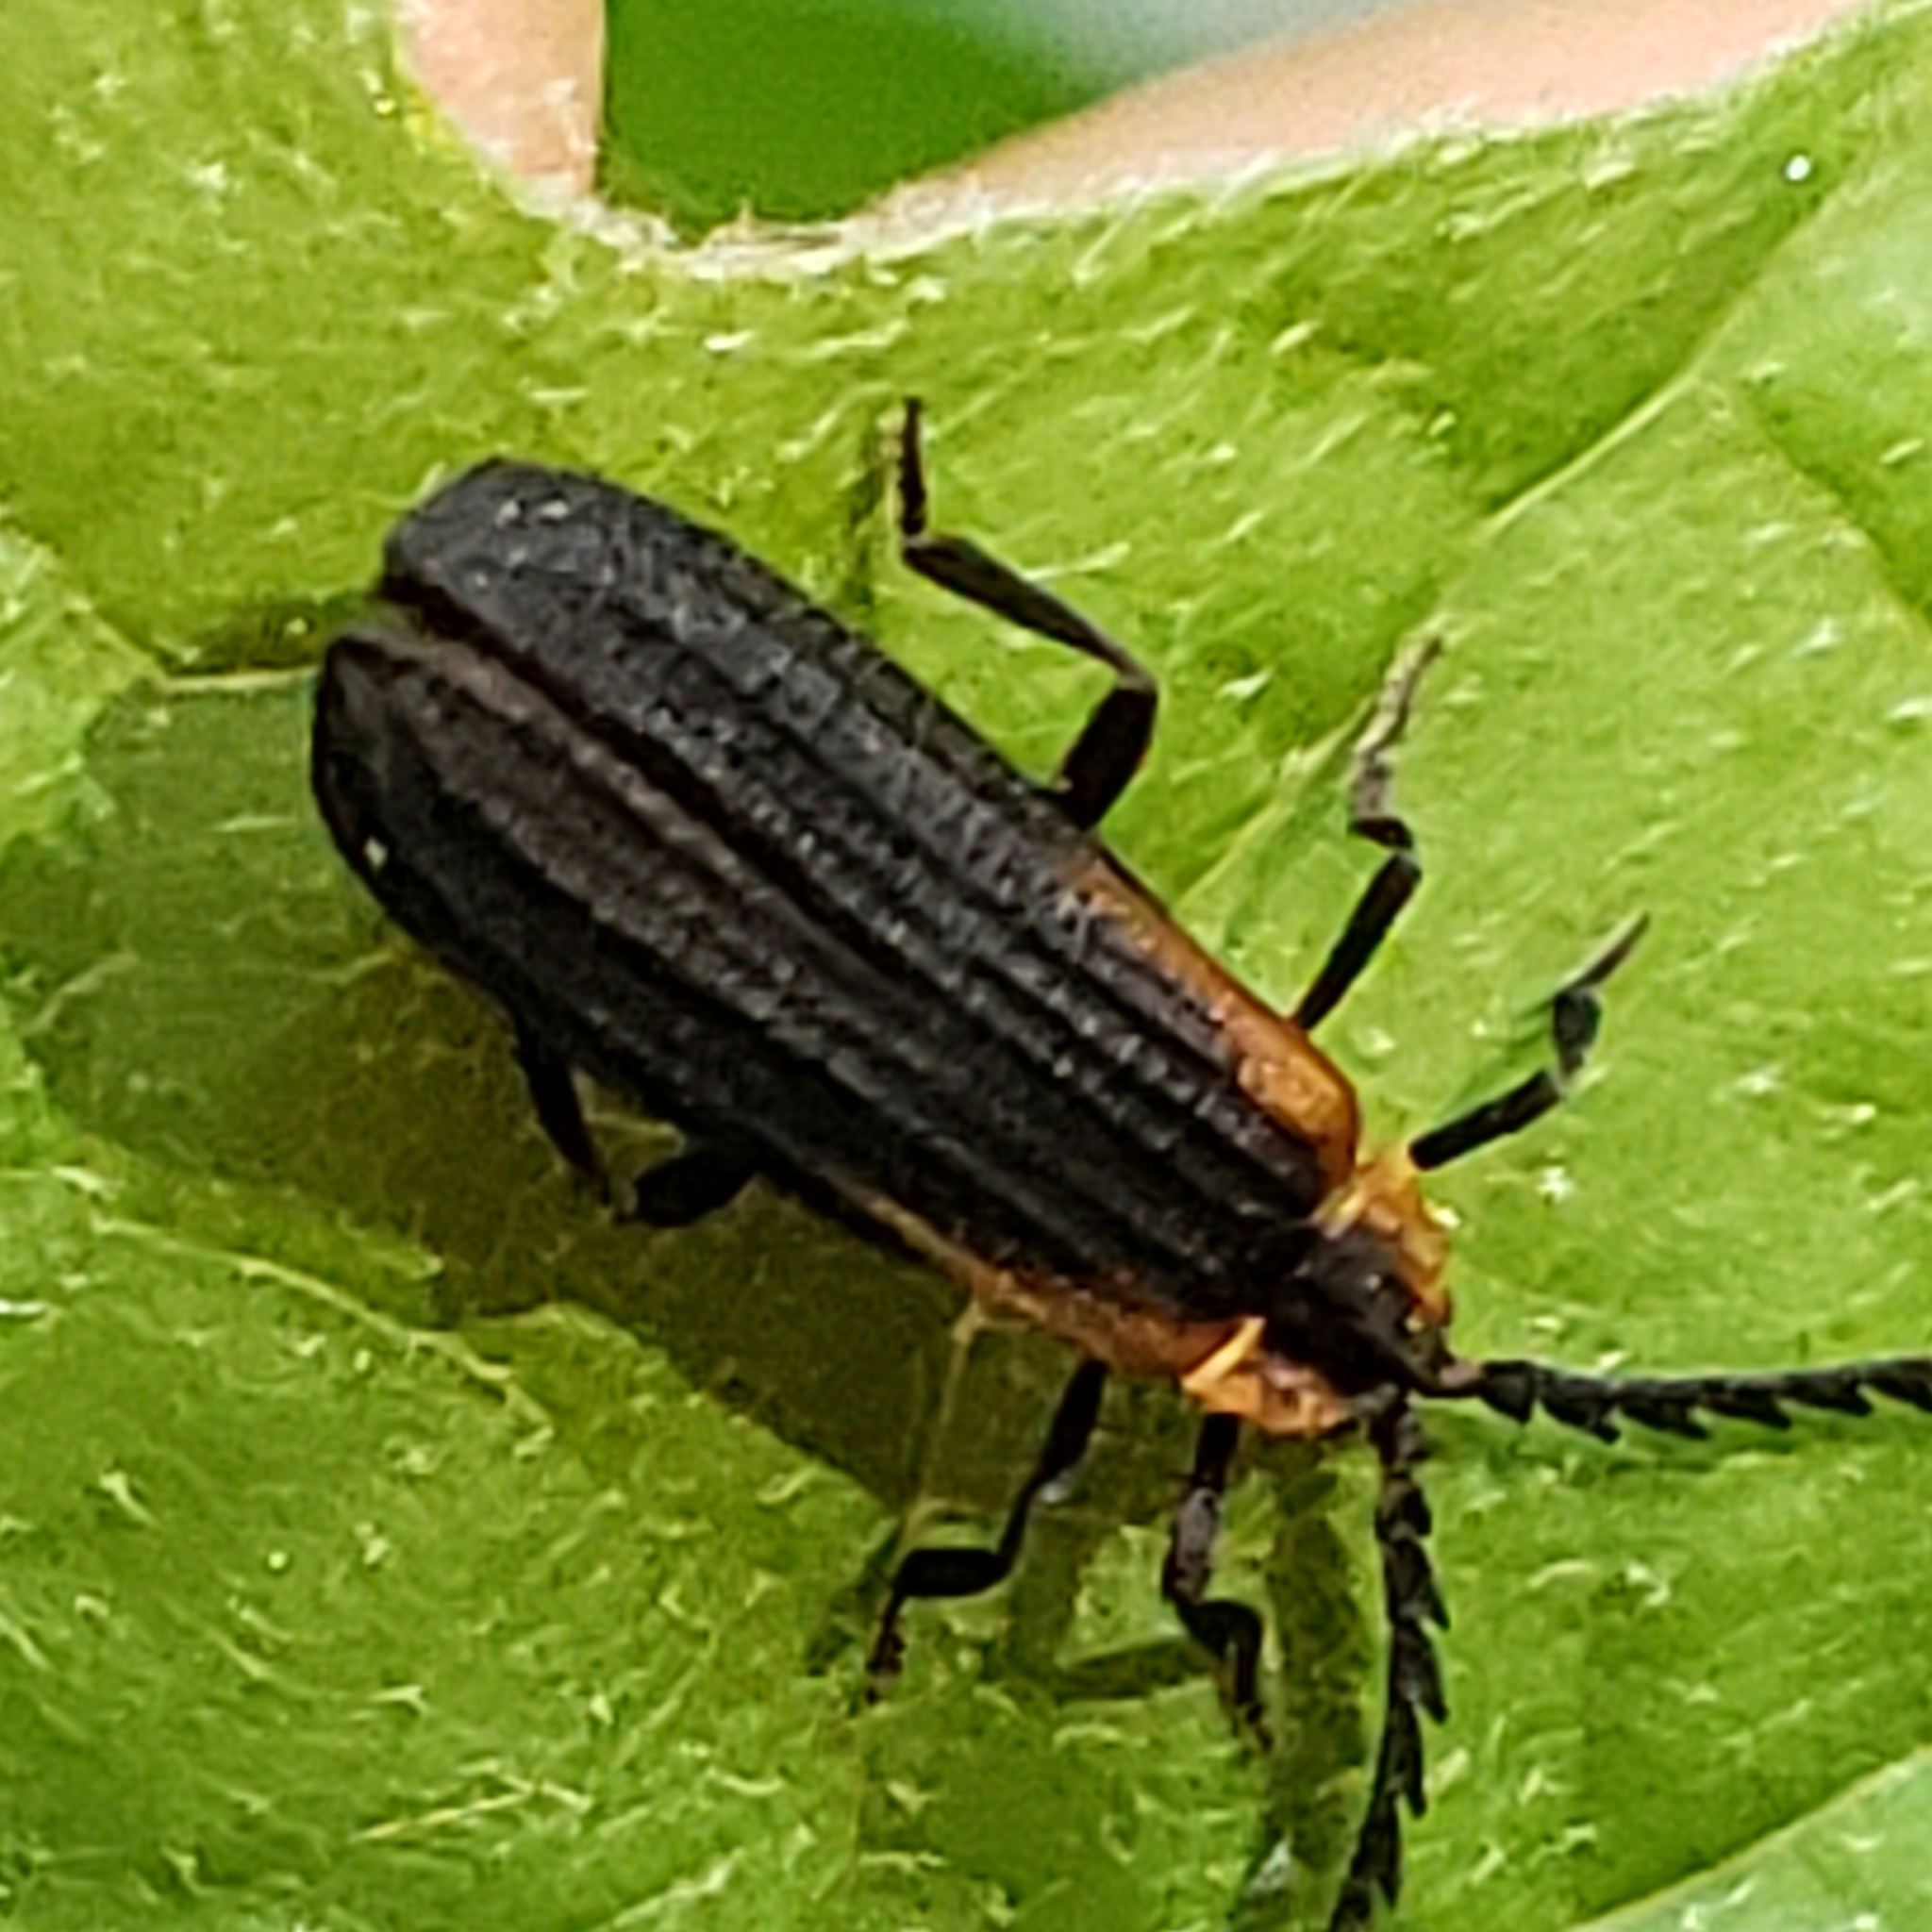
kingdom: Animalia
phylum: Arthropoda
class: Insecta
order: Coleoptera
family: Lycidae
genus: Leptoceletes
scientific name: Leptoceletes basalis
